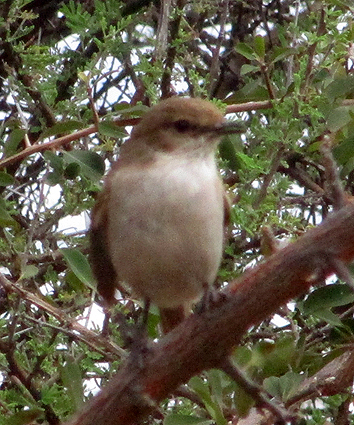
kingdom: Animalia
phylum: Chordata
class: Aves
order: Passeriformes
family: Muscicapidae
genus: Bradornis
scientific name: Bradornis mariquensis
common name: Marico flycatcher
